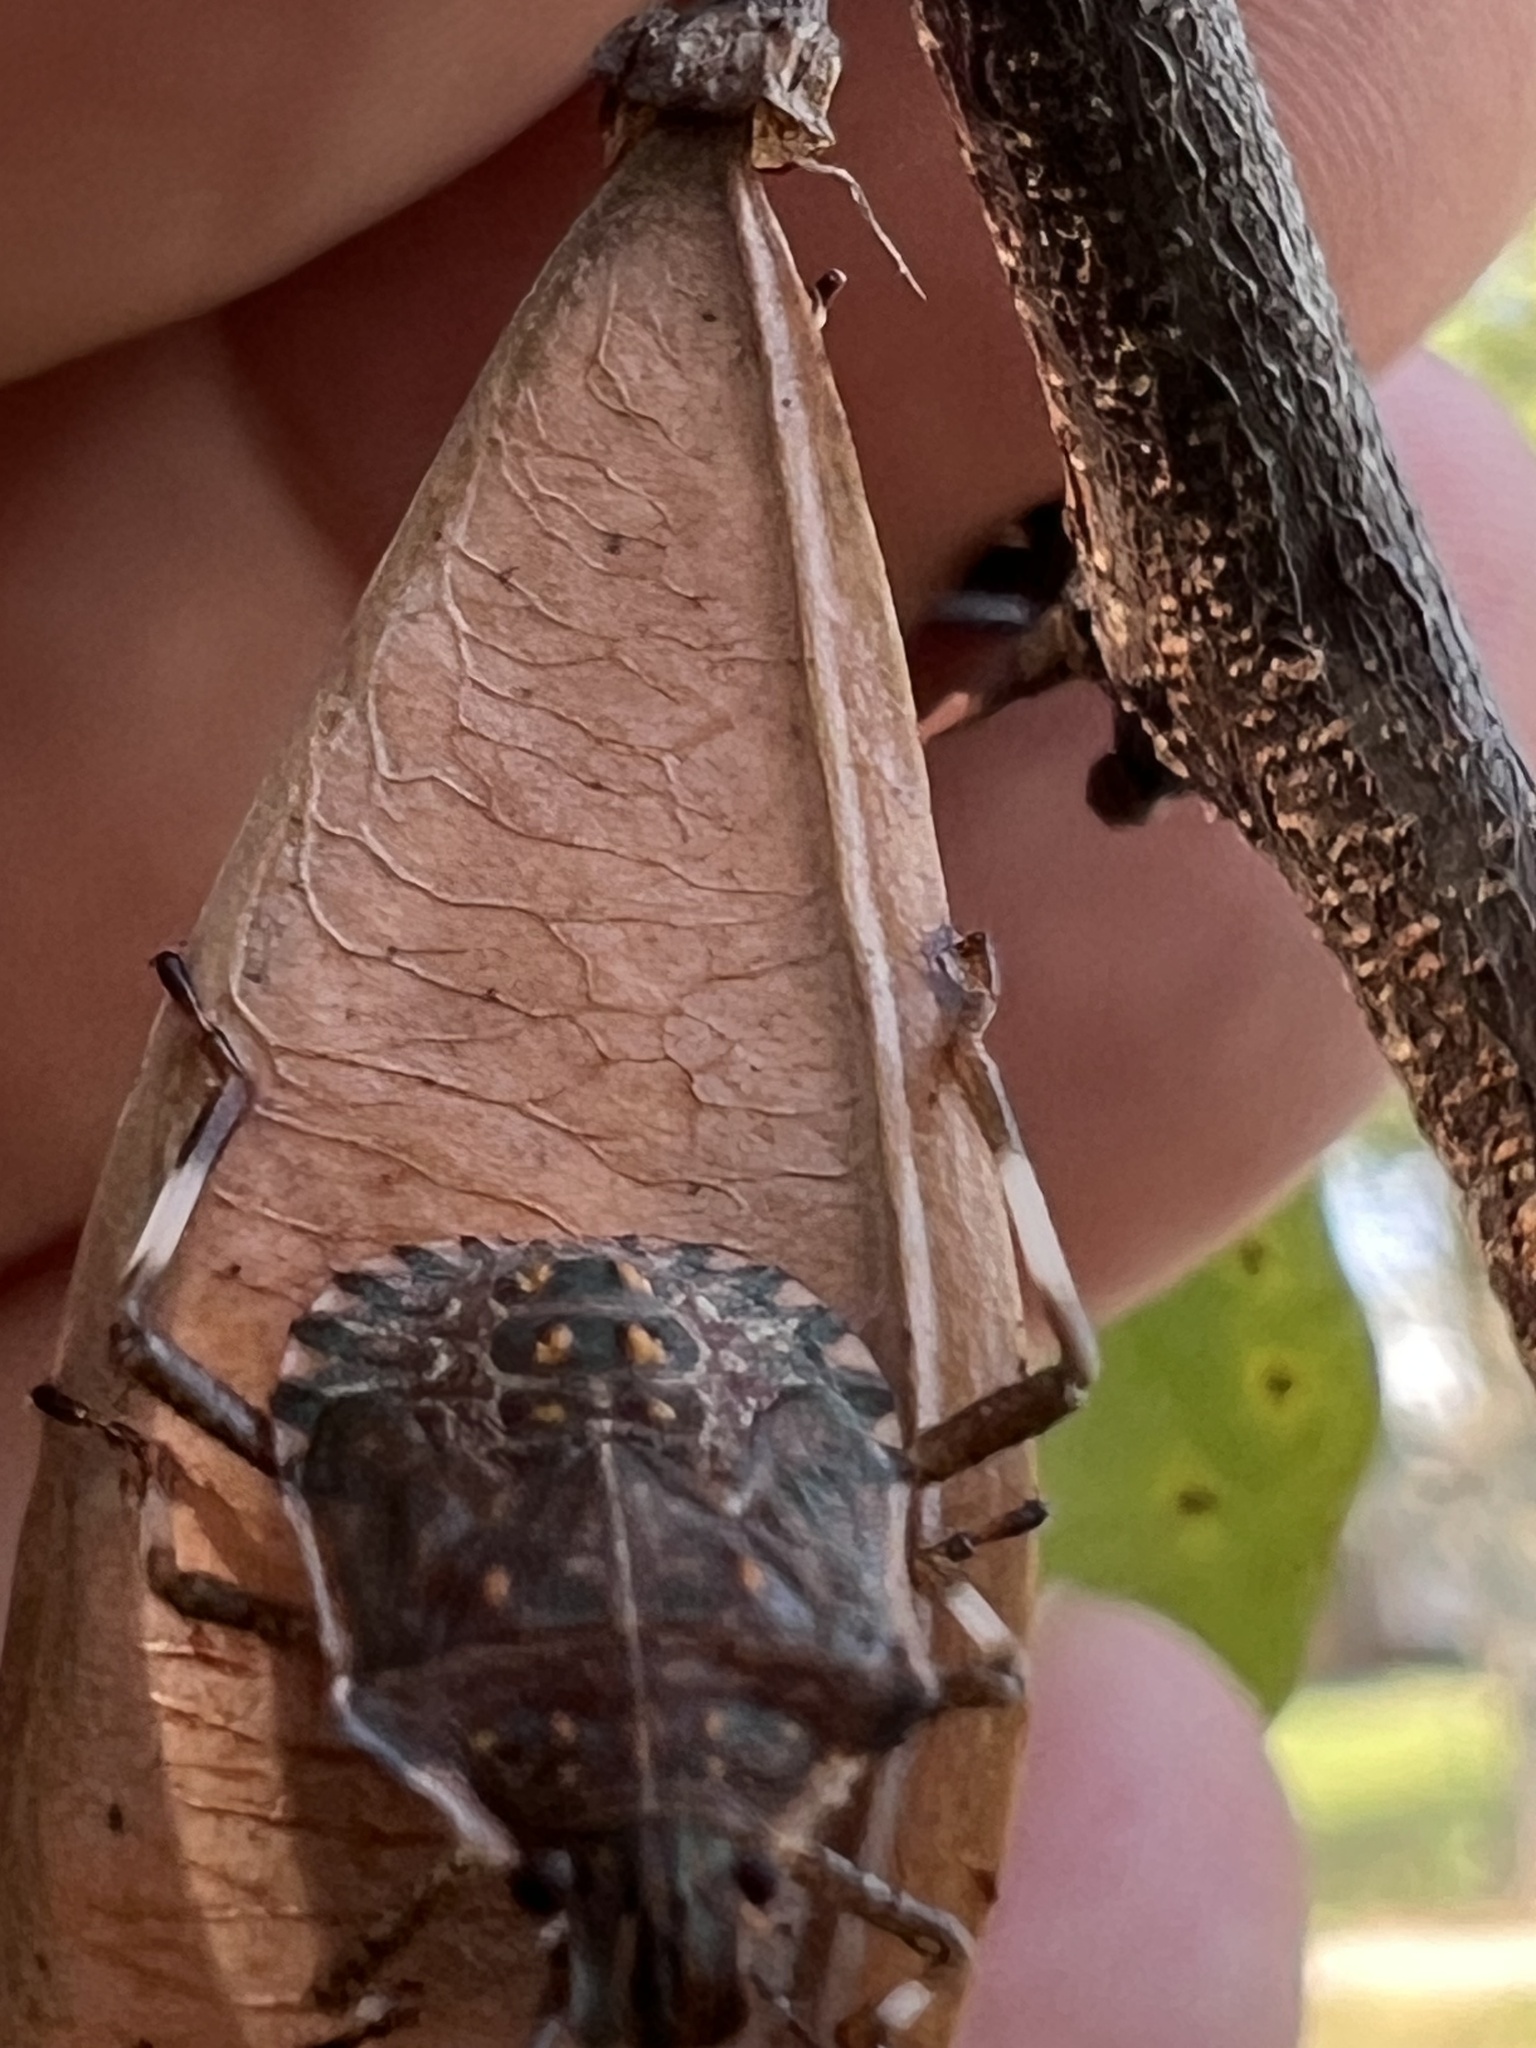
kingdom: Animalia
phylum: Arthropoda
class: Insecta
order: Hemiptera
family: Pentatomidae
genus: Halyomorpha
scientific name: Halyomorpha halys
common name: Brown marmorated stink bug
